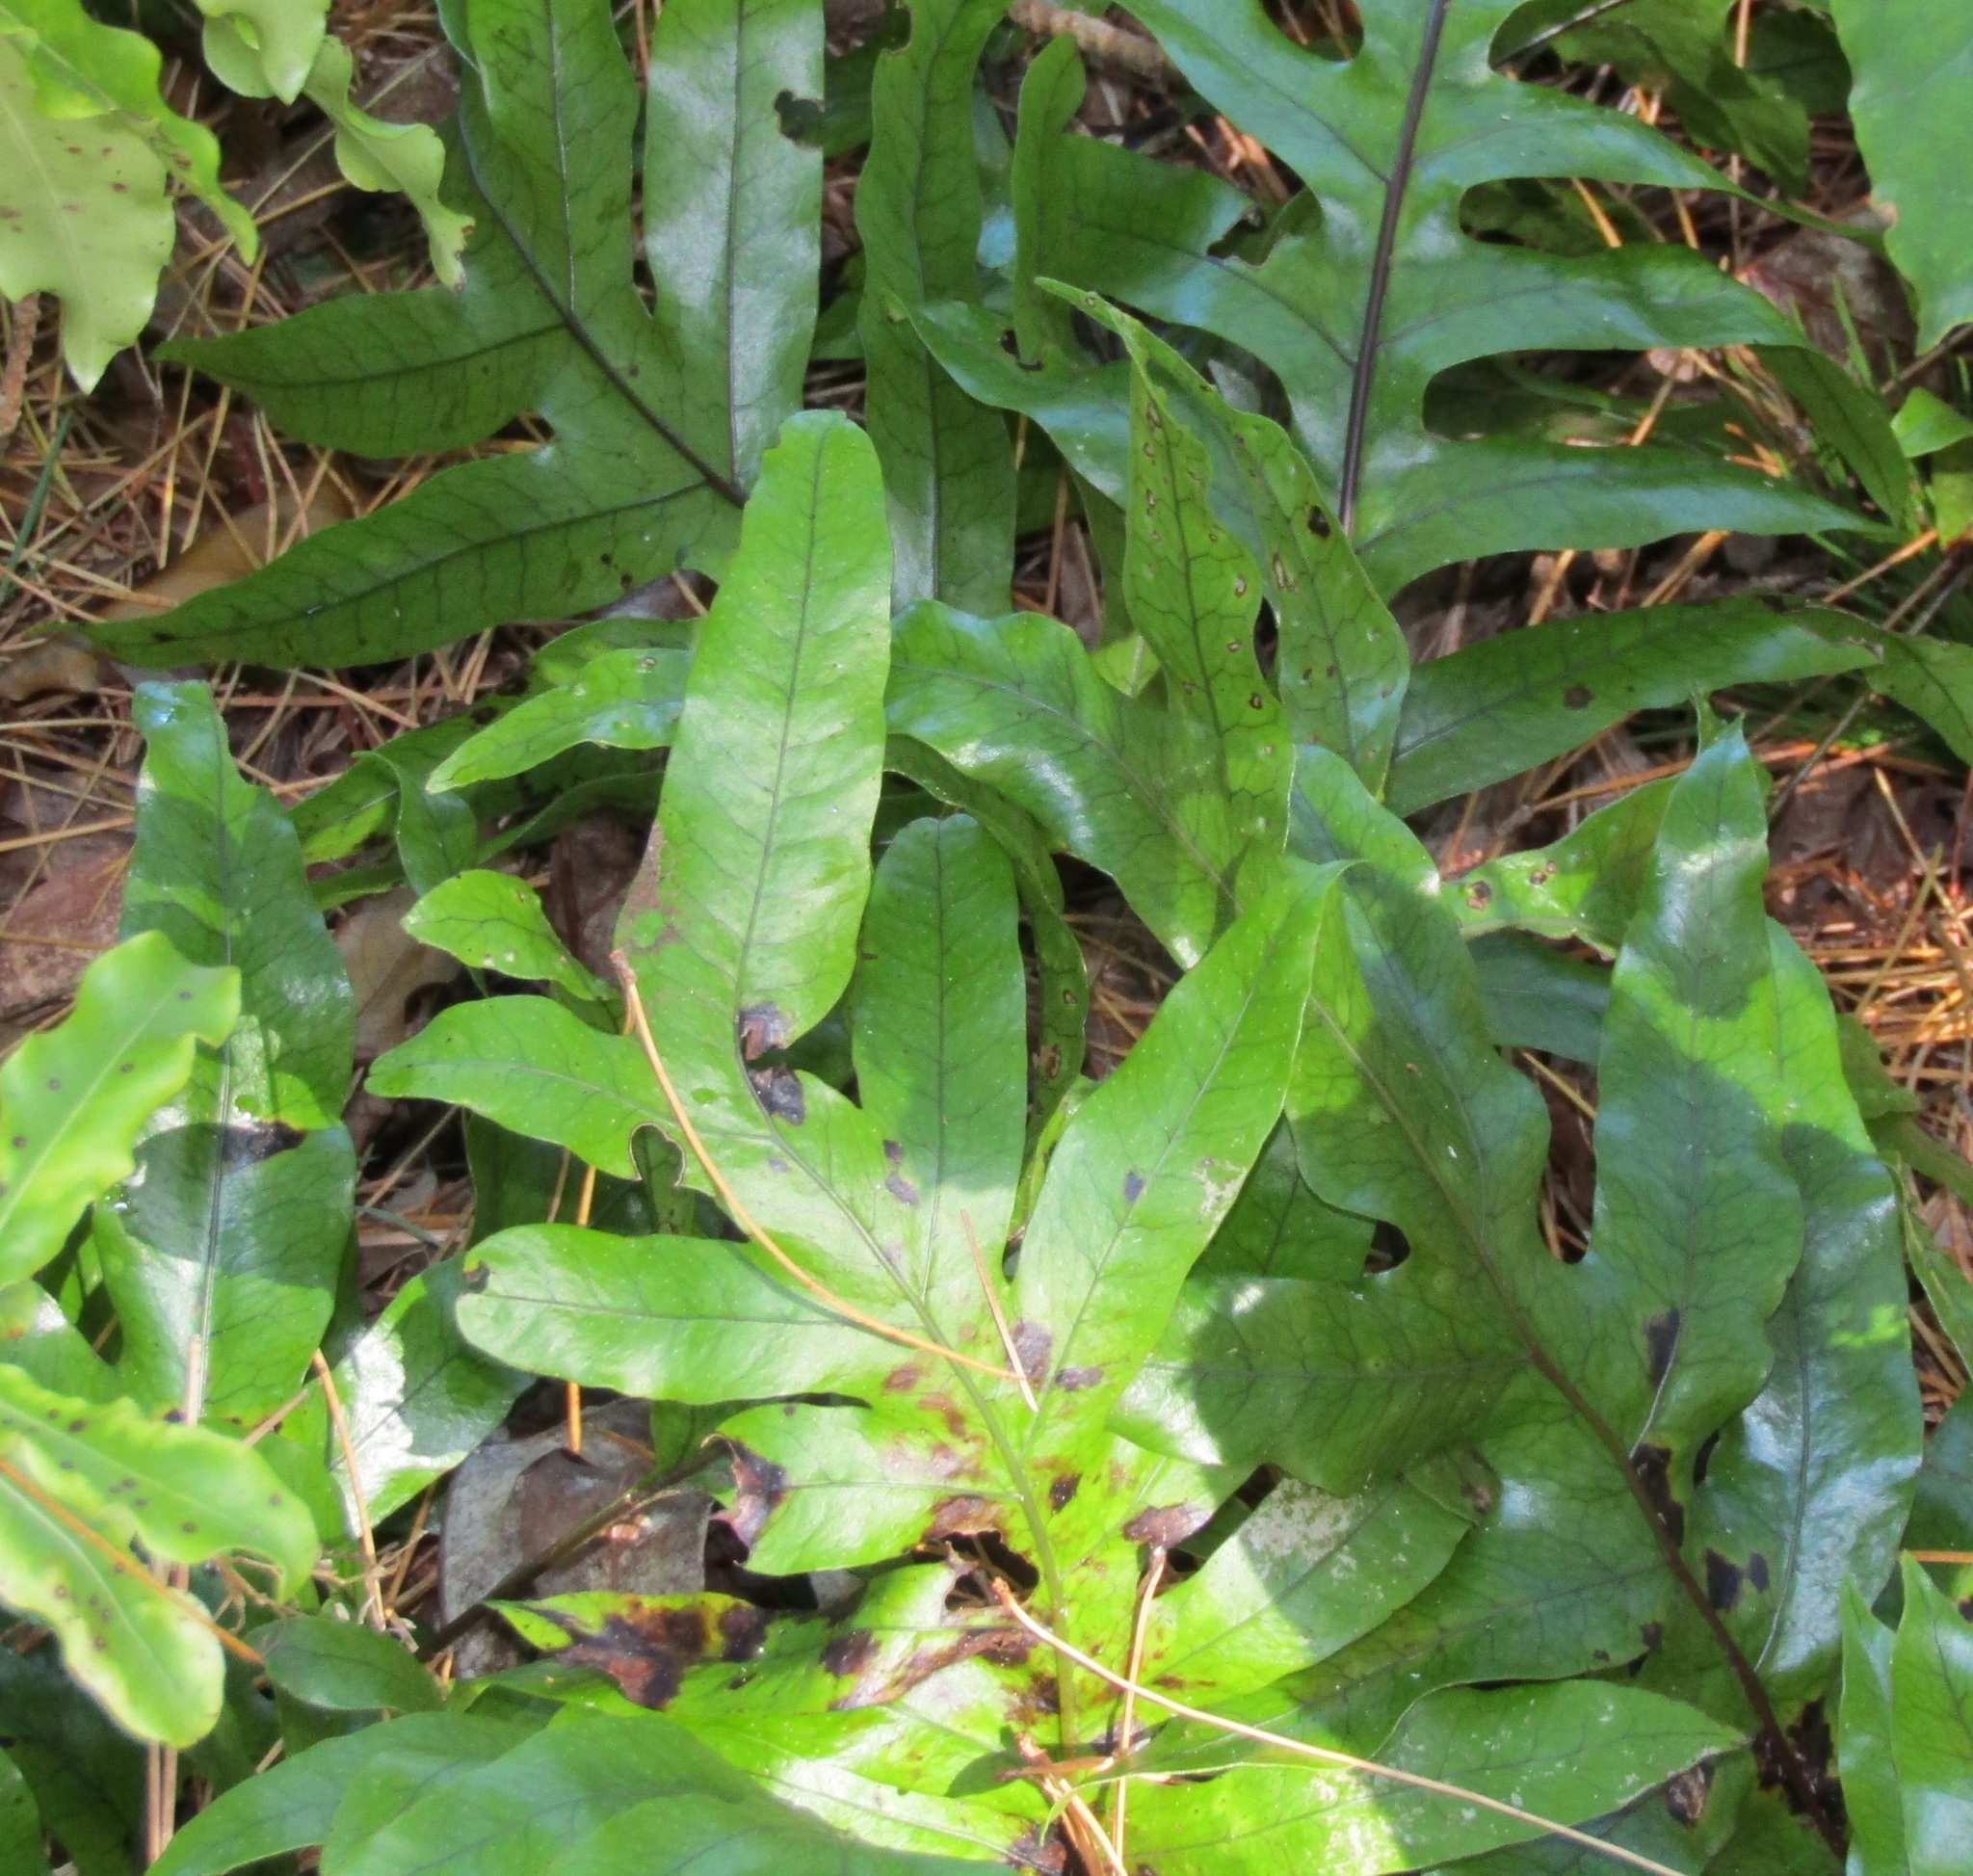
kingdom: Plantae
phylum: Tracheophyta
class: Polypodiopsida
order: Polypodiales
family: Polypodiaceae
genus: Lecanopteris
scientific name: Lecanopteris pustulata
